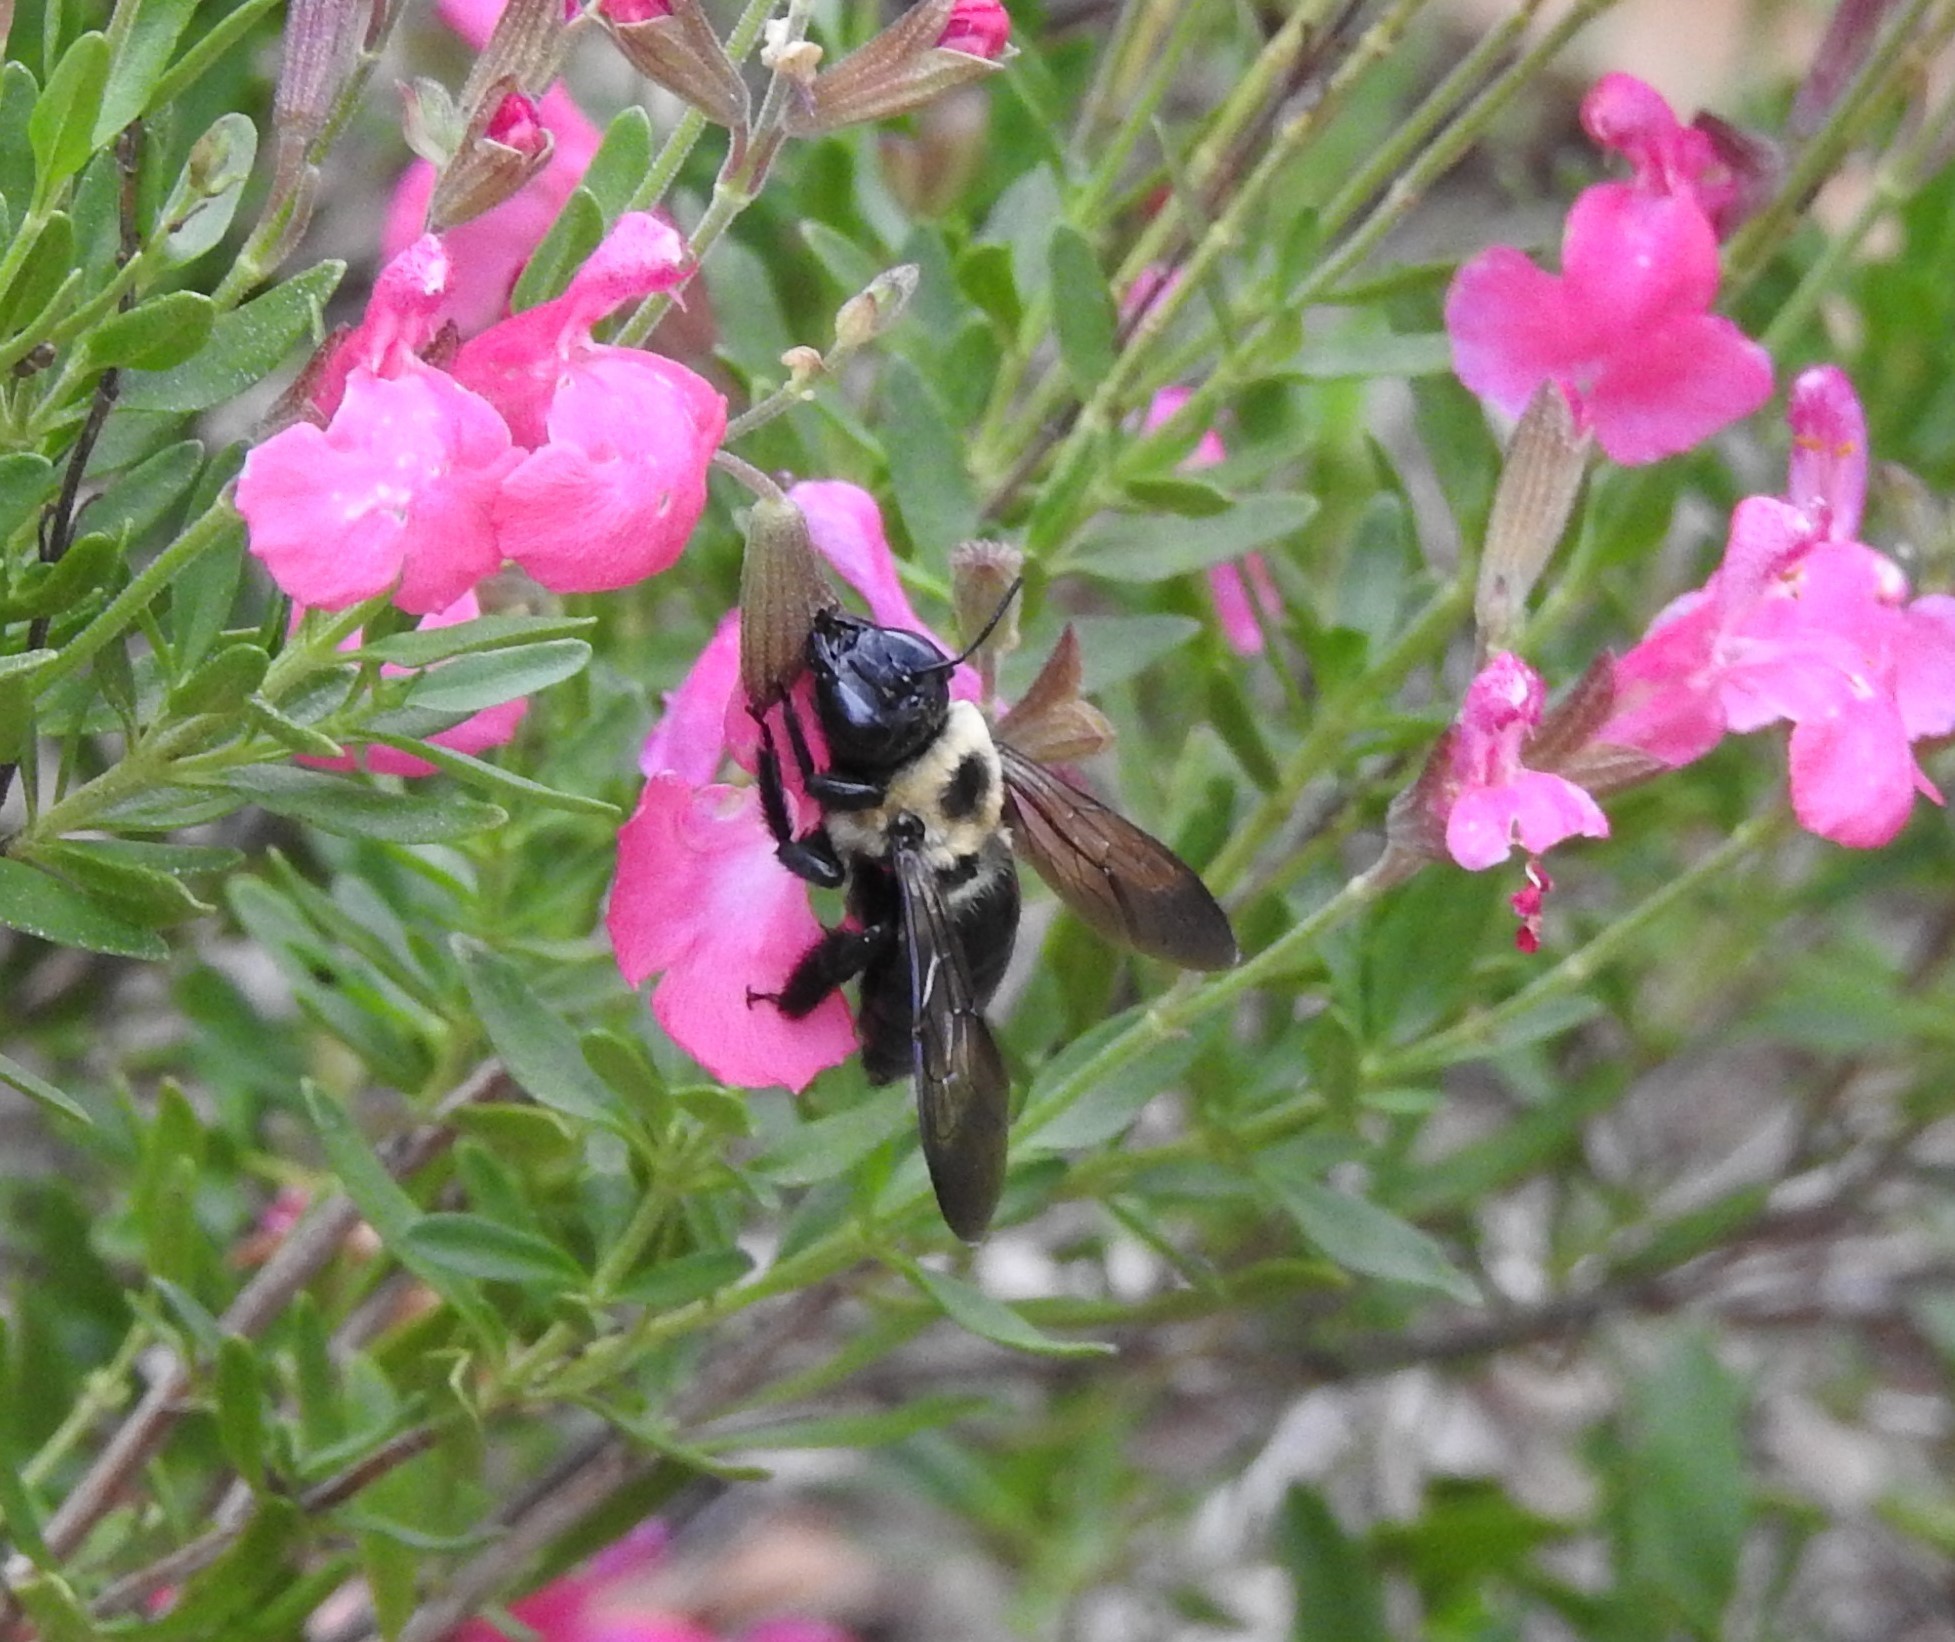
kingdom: Animalia
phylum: Arthropoda
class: Insecta
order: Hymenoptera
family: Apidae
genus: Xylocopa
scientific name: Xylocopa virginica
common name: Carpenter bee
